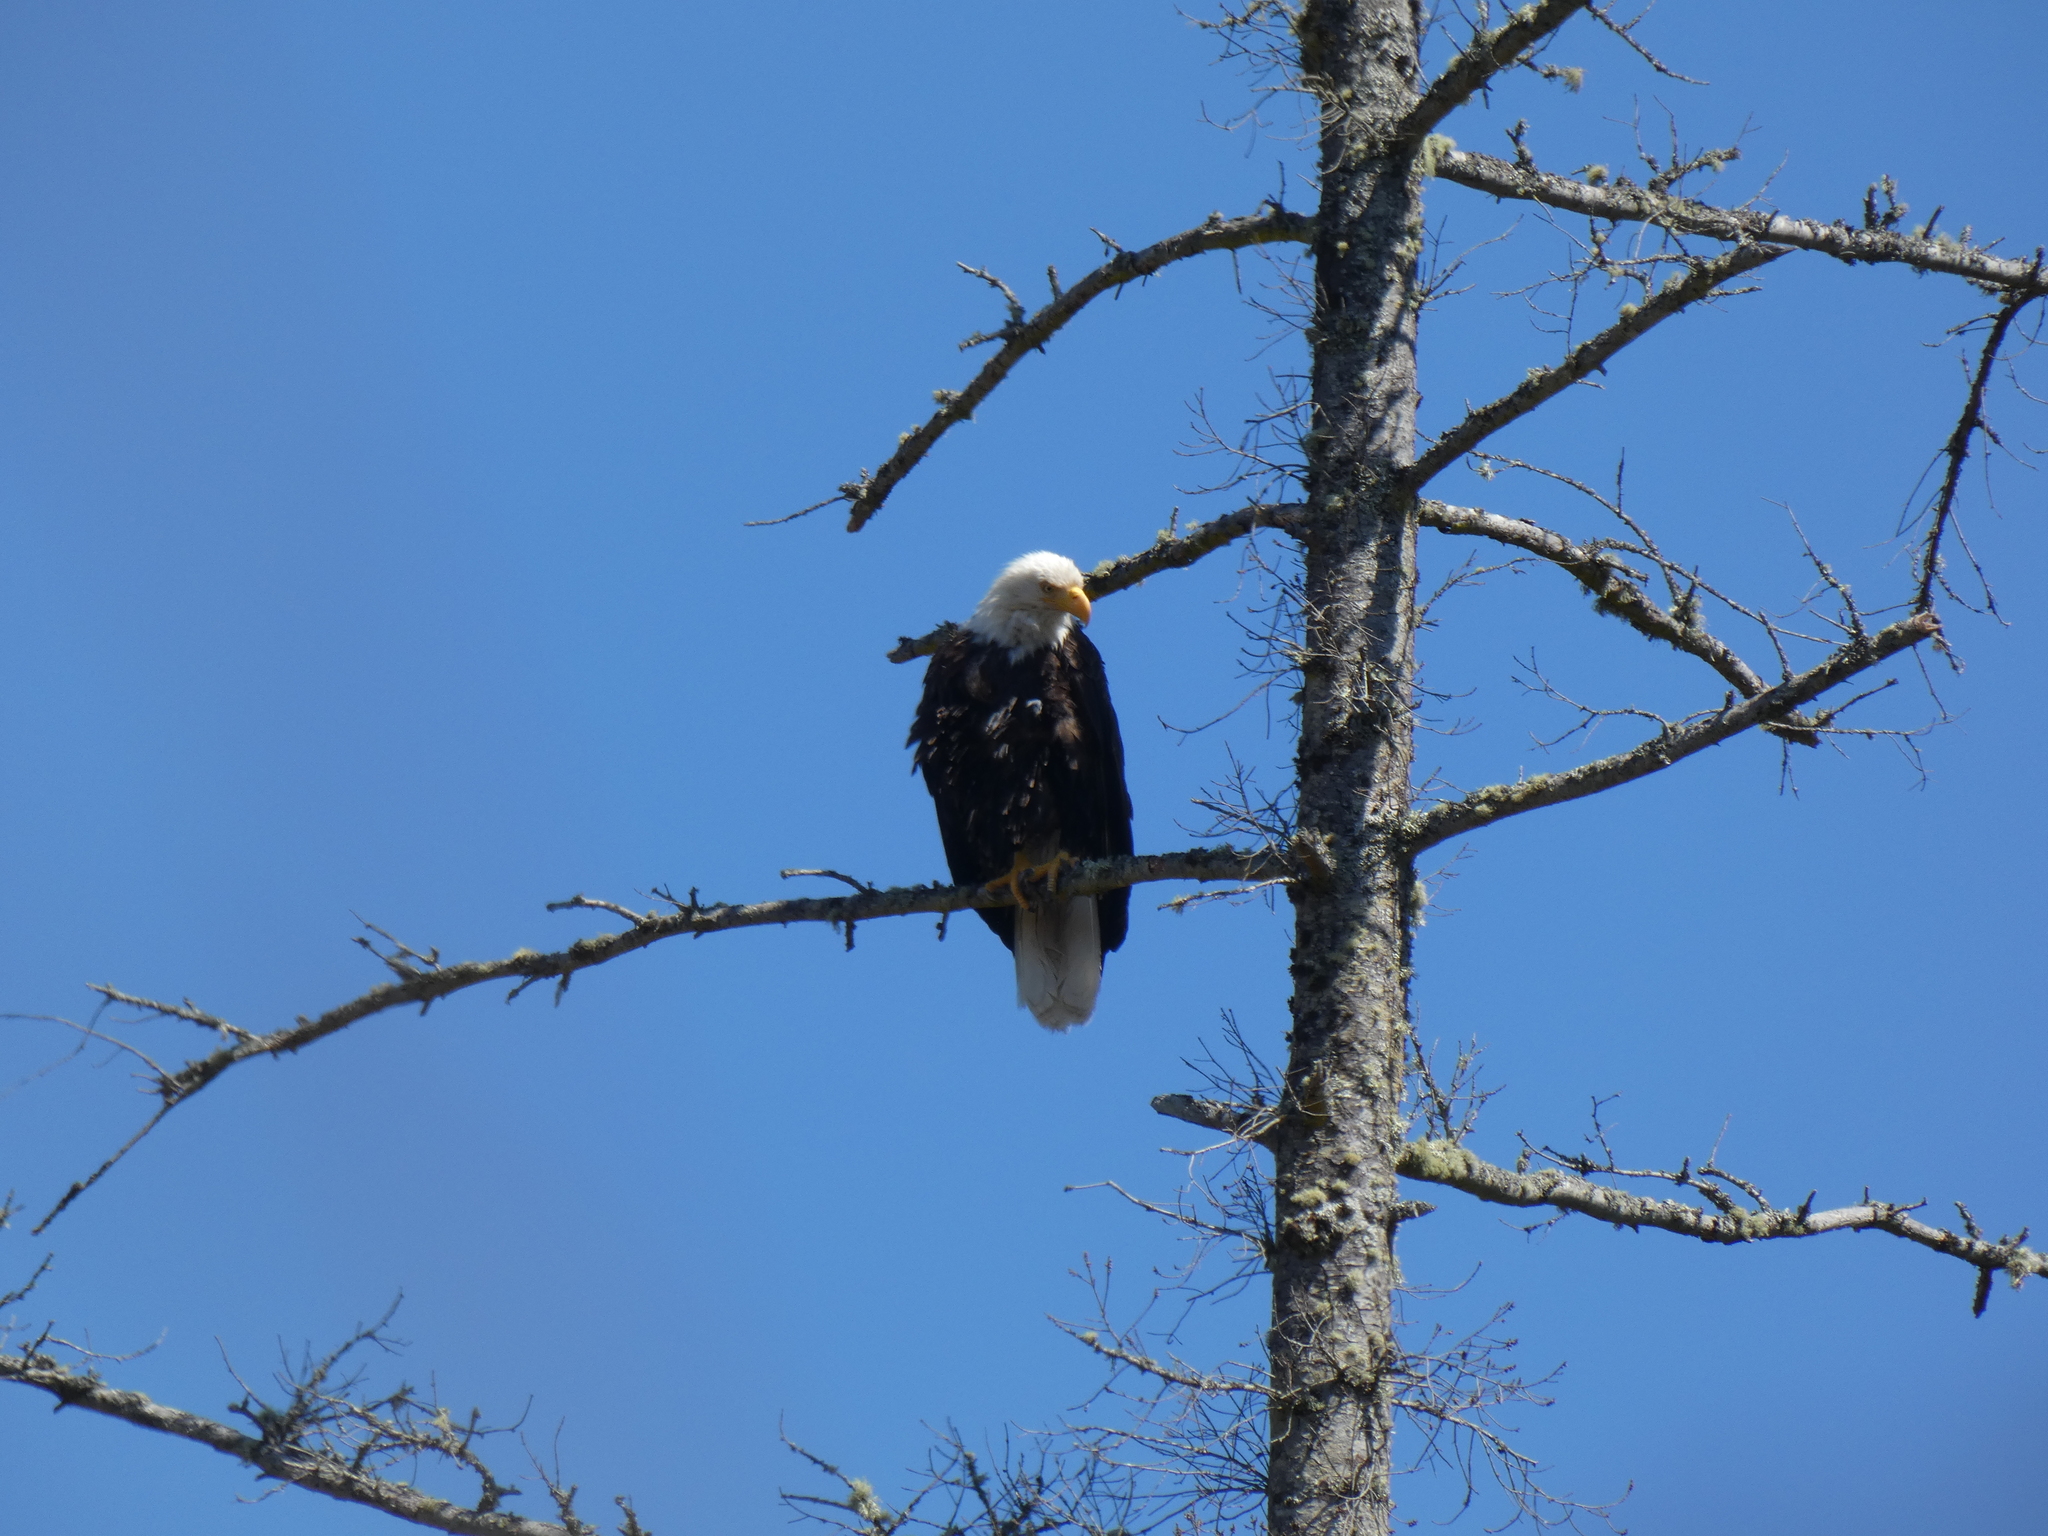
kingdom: Animalia
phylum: Chordata
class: Aves
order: Accipitriformes
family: Accipitridae
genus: Haliaeetus
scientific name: Haliaeetus leucocephalus
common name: Bald eagle
